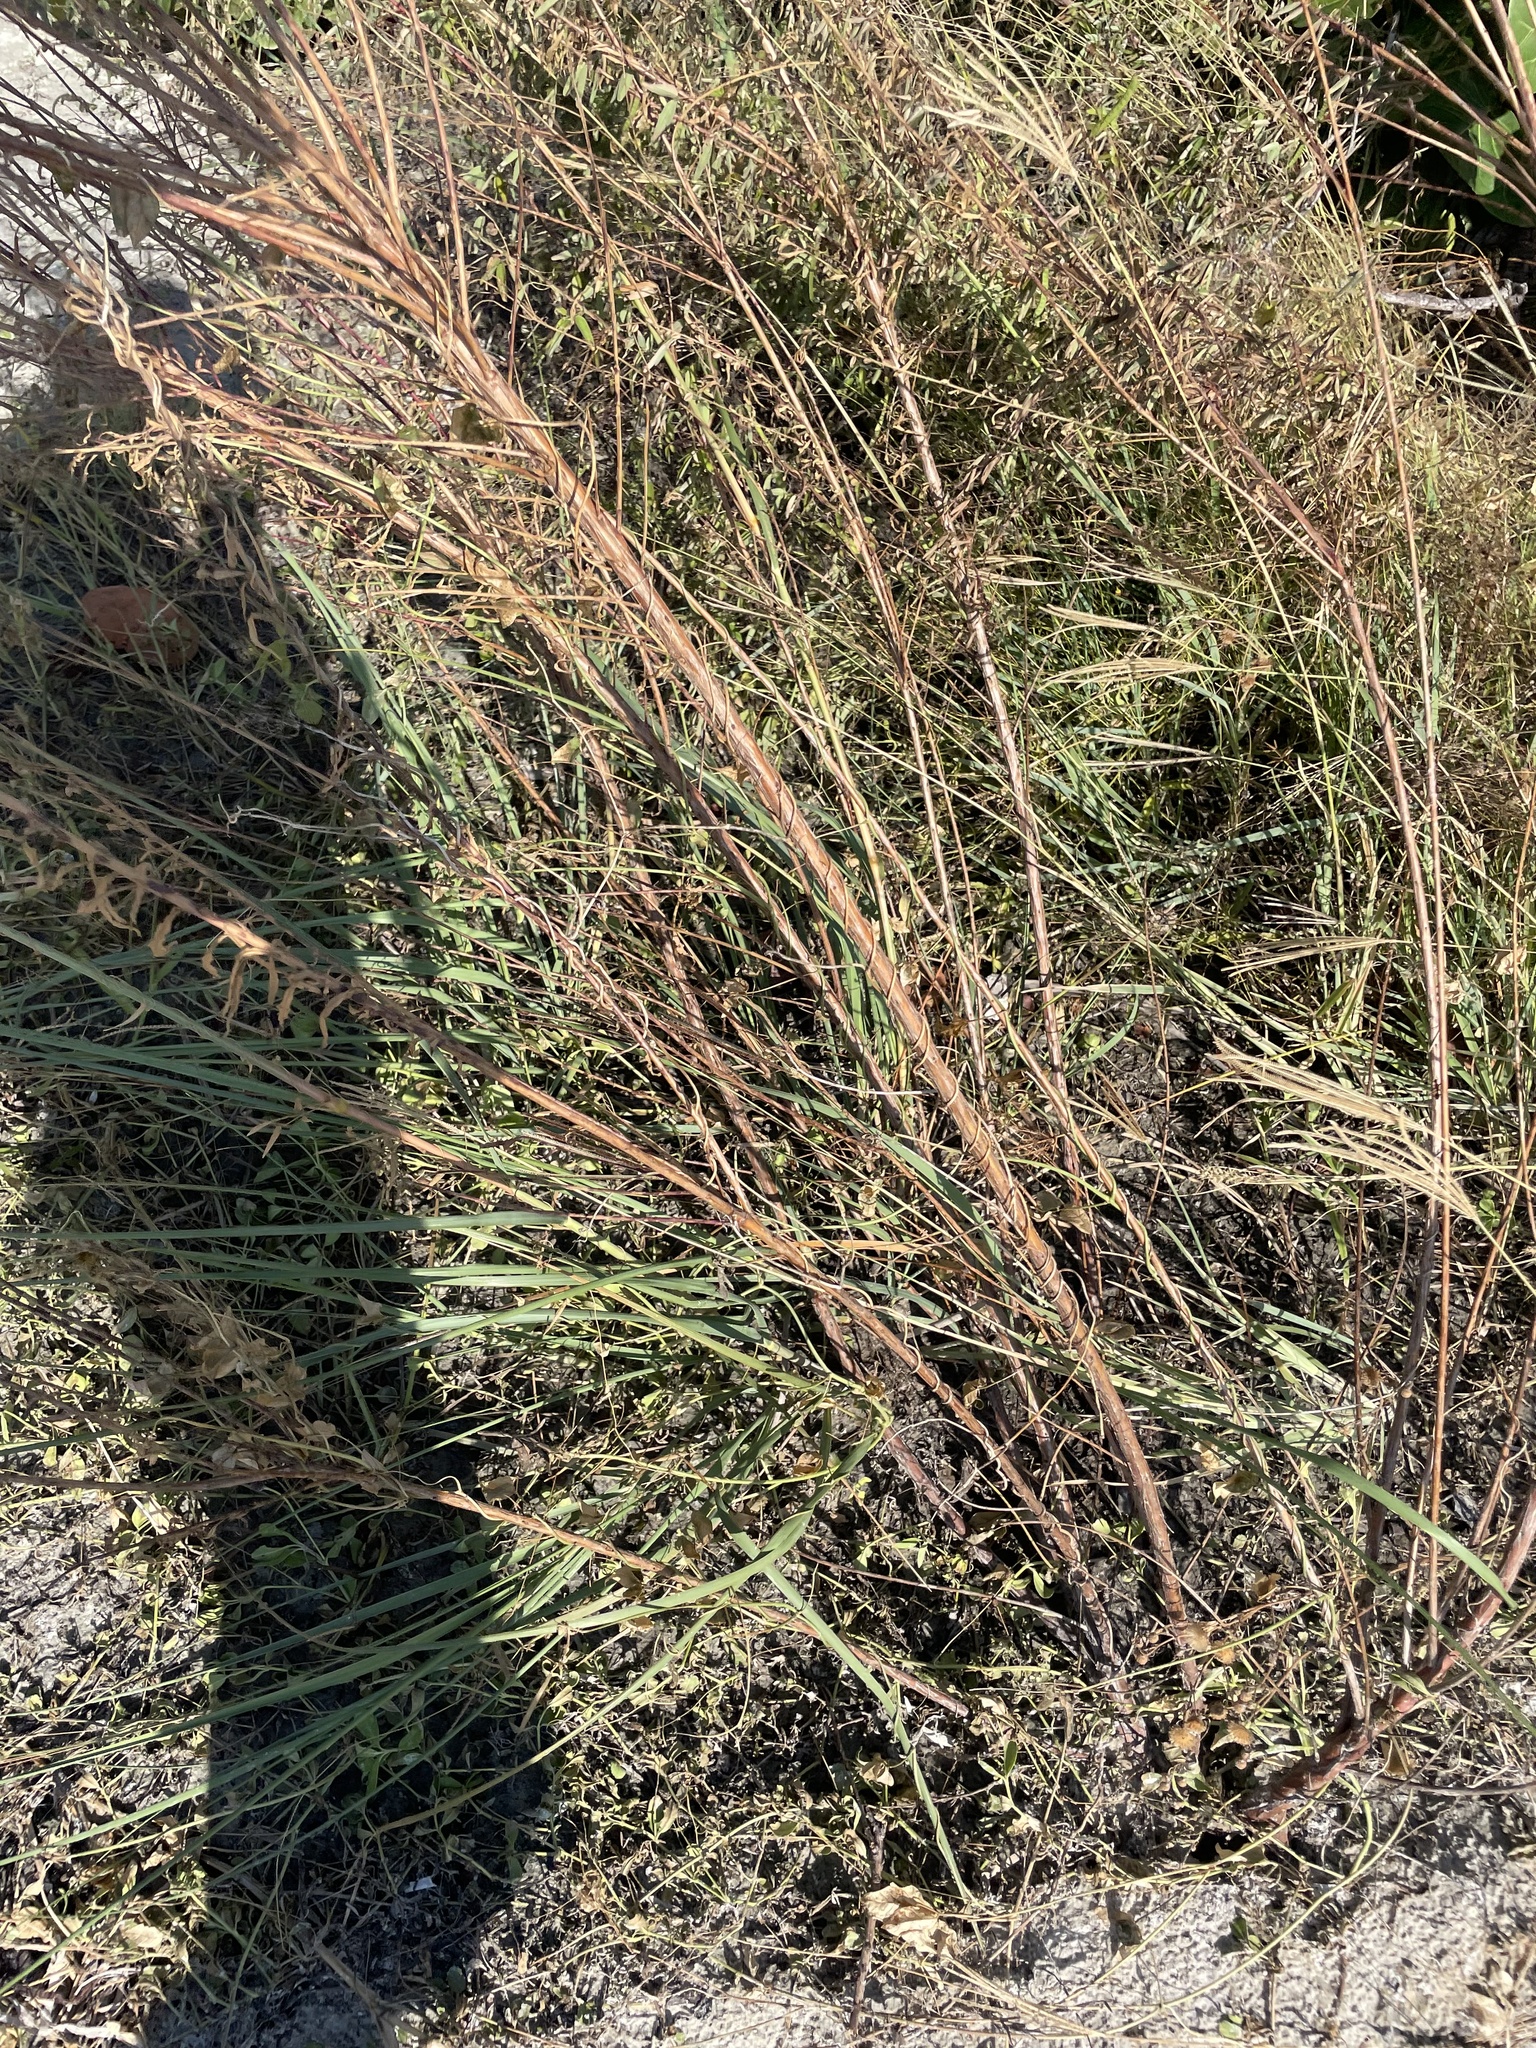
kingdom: Plantae
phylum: Tracheophyta
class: Liliopsida
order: Poales
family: Poaceae
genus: Uniola
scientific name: Uniola paniculata
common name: Seaside-oats
